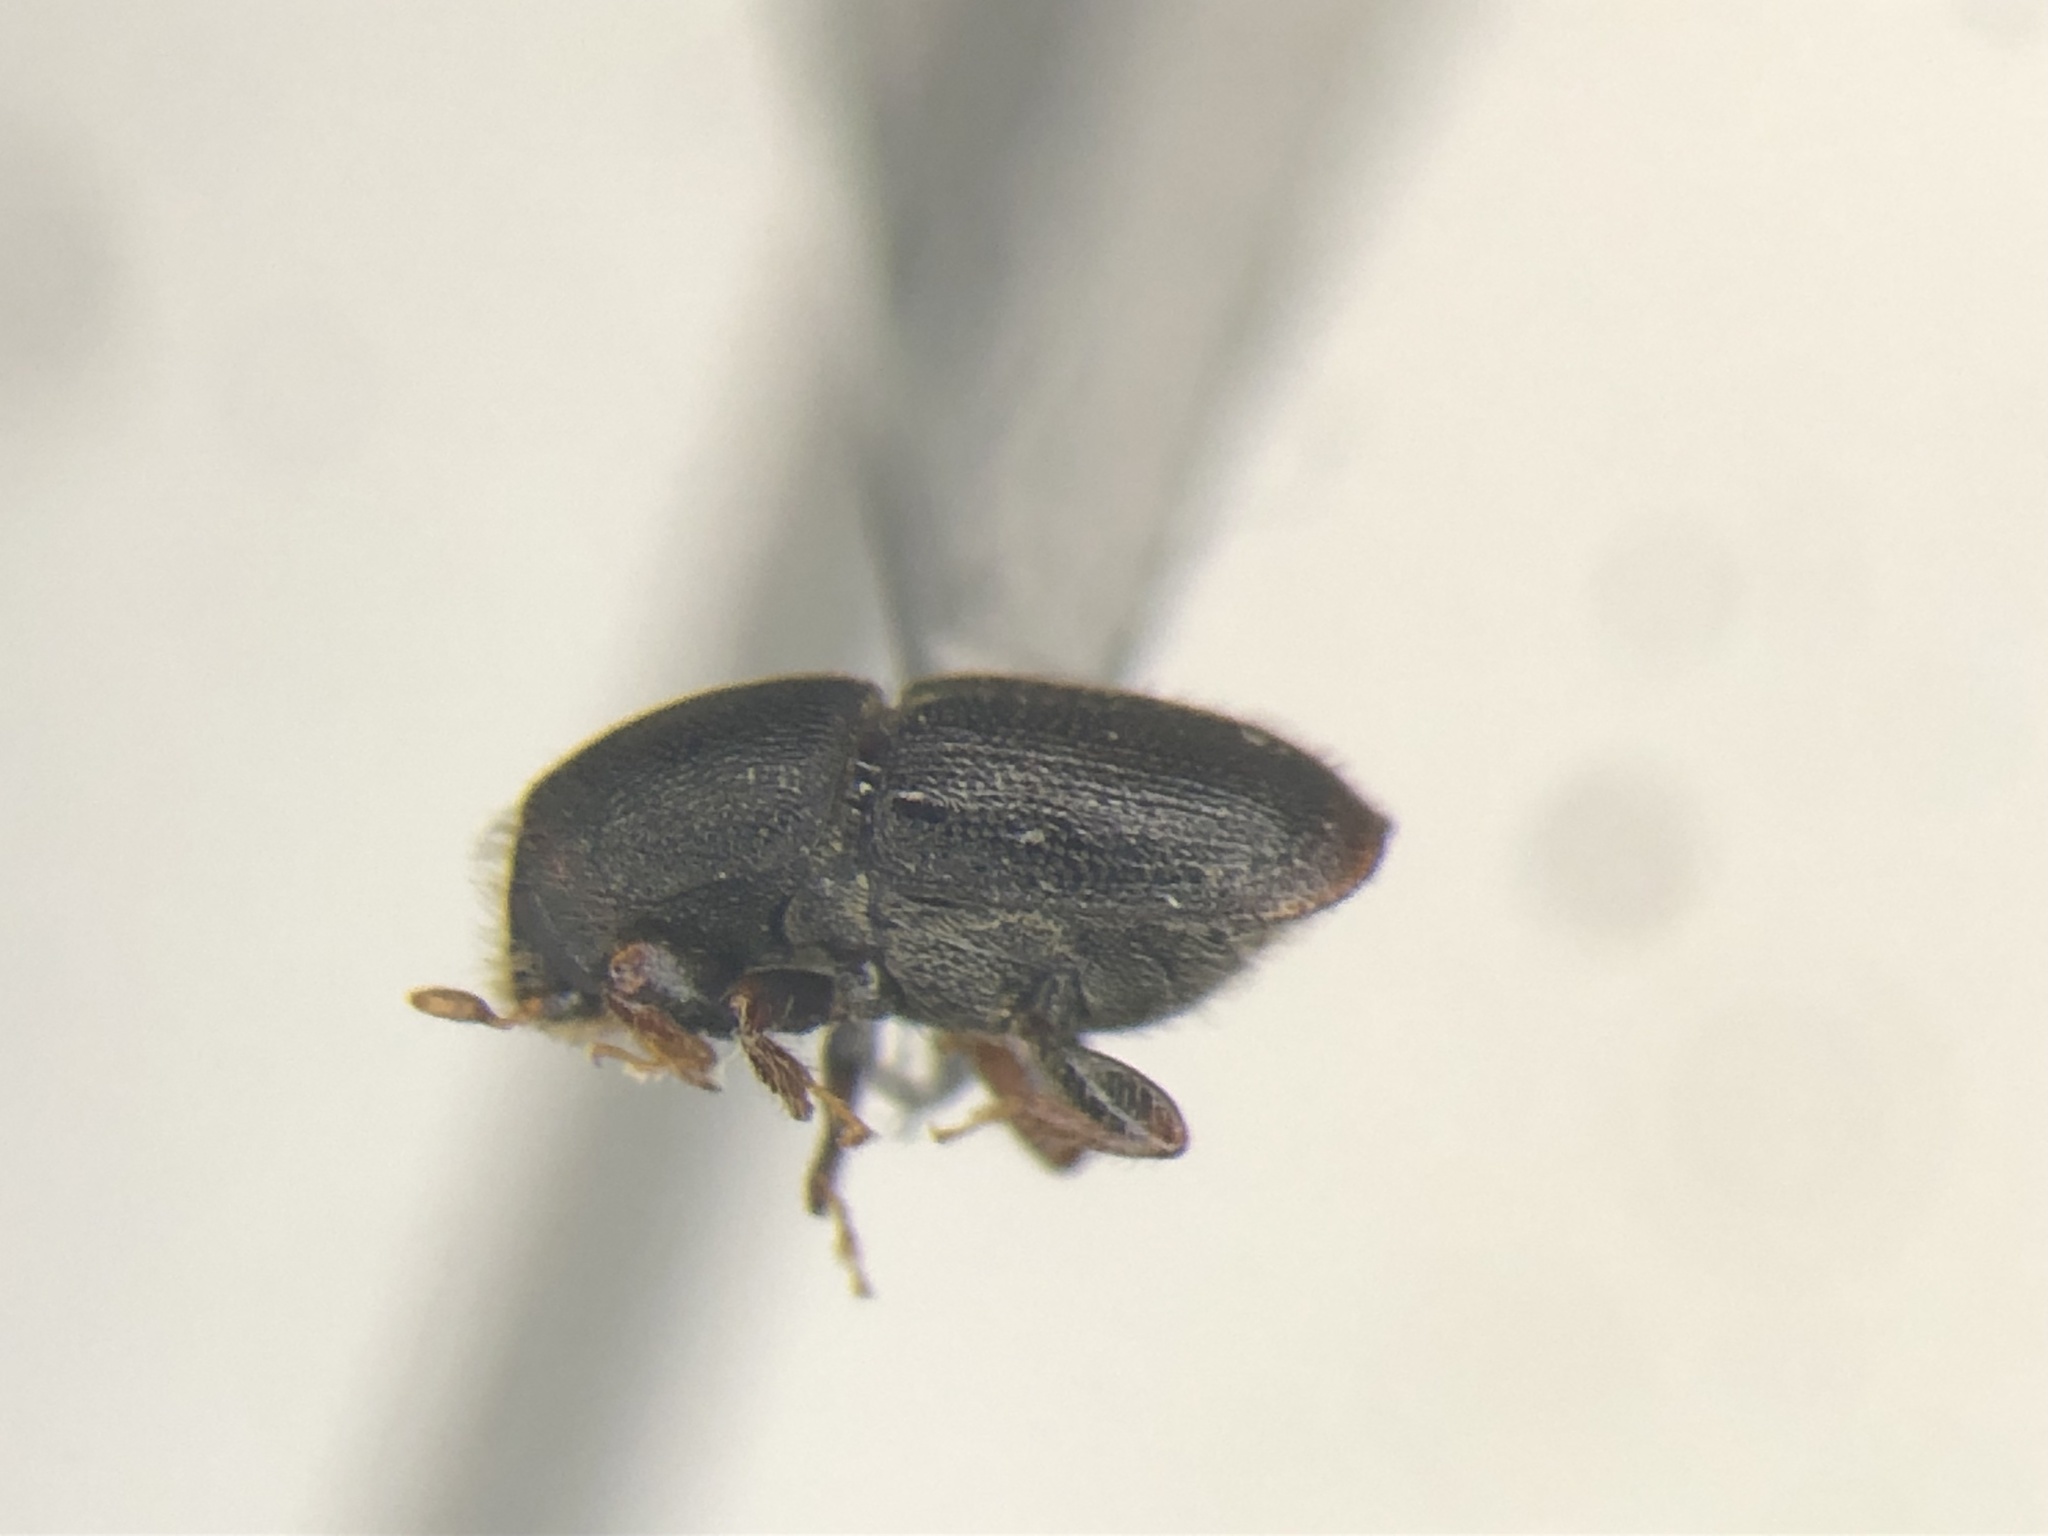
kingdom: Animalia
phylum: Arthropoda
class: Insecta
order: Coleoptera
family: Curculionidae
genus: Scolytus
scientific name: Scolytus rugulosus
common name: Fruit bark beetle
